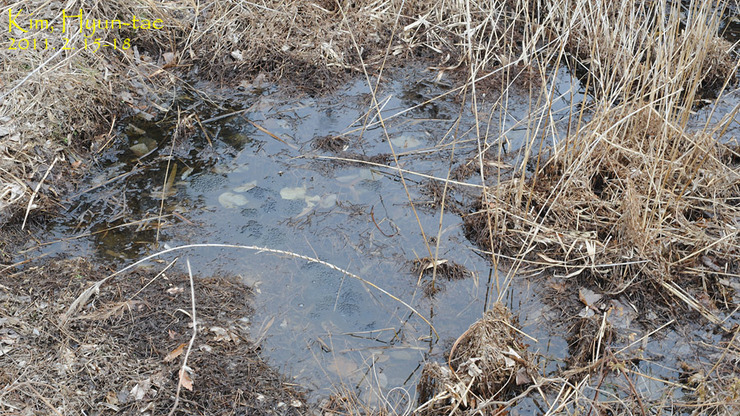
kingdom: Animalia
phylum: Chordata
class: Amphibia
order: Anura
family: Ranidae
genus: Rana
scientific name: Rana uenoi
